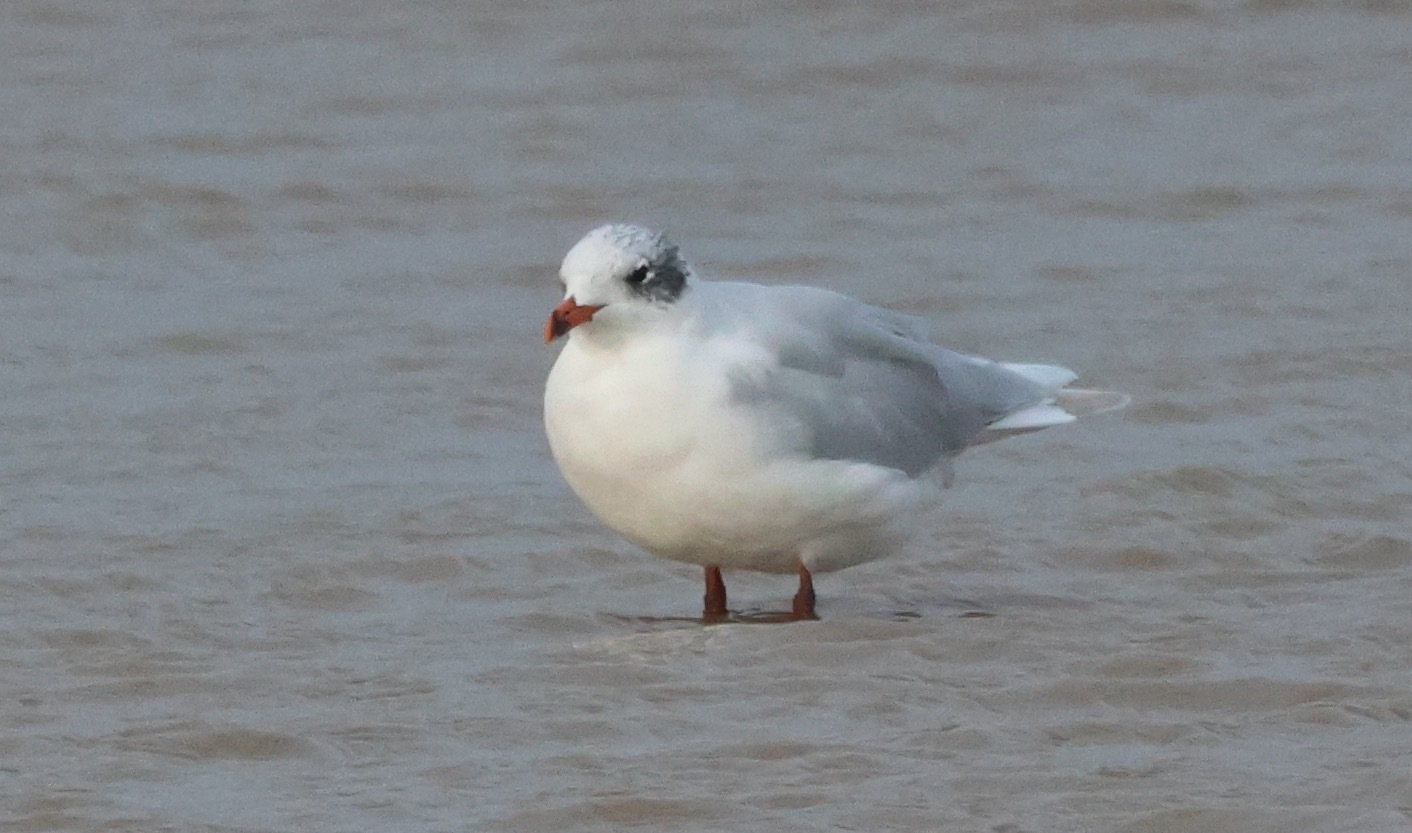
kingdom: Animalia
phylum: Chordata
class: Aves
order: Charadriiformes
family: Laridae
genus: Ichthyaetus
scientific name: Ichthyaetus melanocephalus
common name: Mediterranean gull
